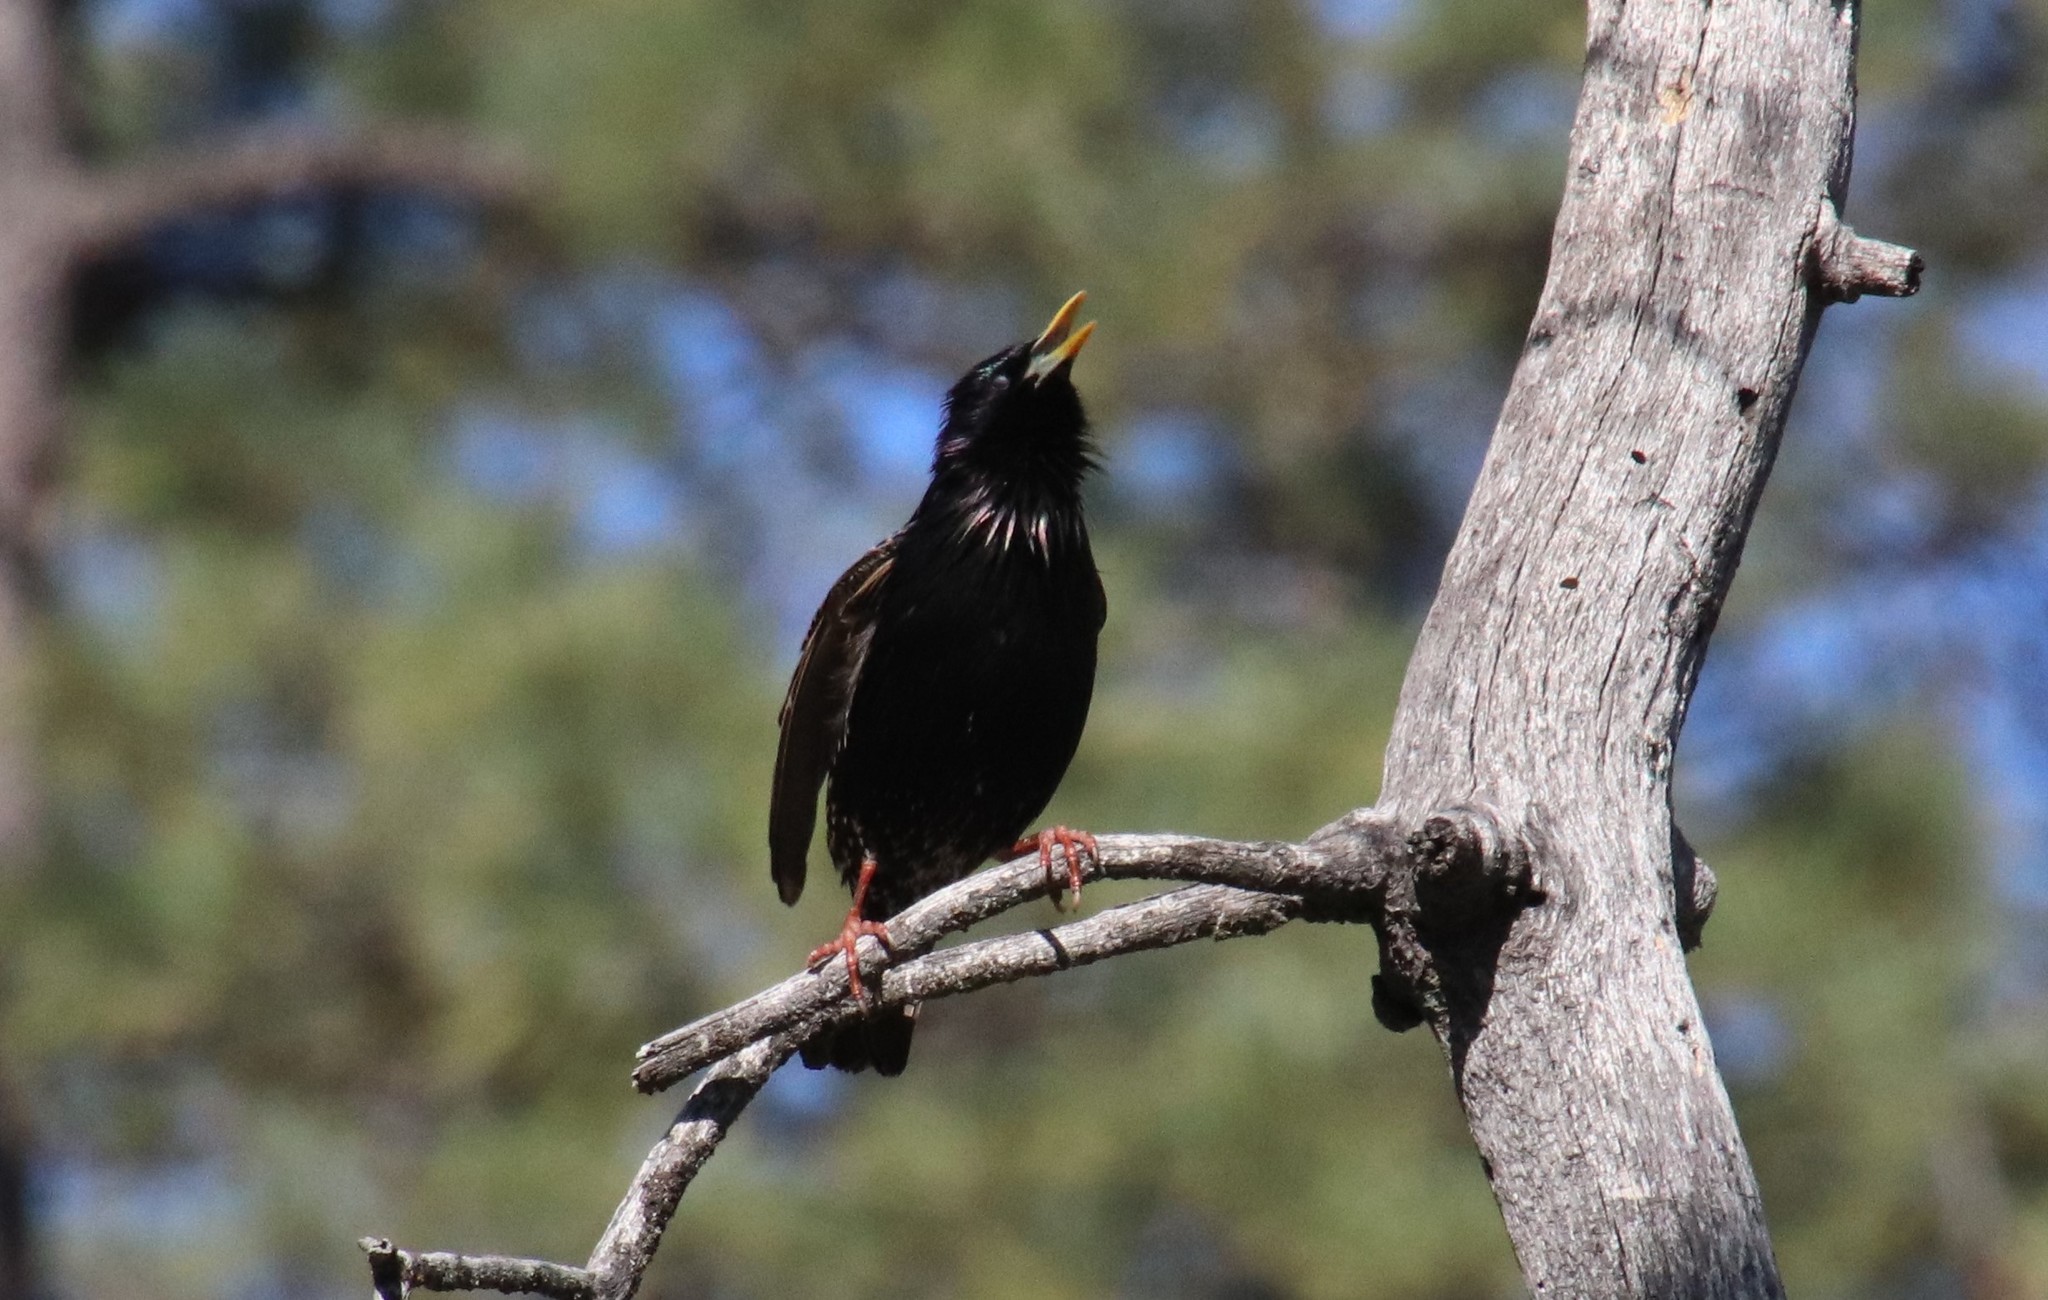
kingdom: Animalia
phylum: Chordata
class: Aves
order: Passeriformes
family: Sturnidae
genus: Sturnus
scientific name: Sturnus vulgaris
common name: Common starling
